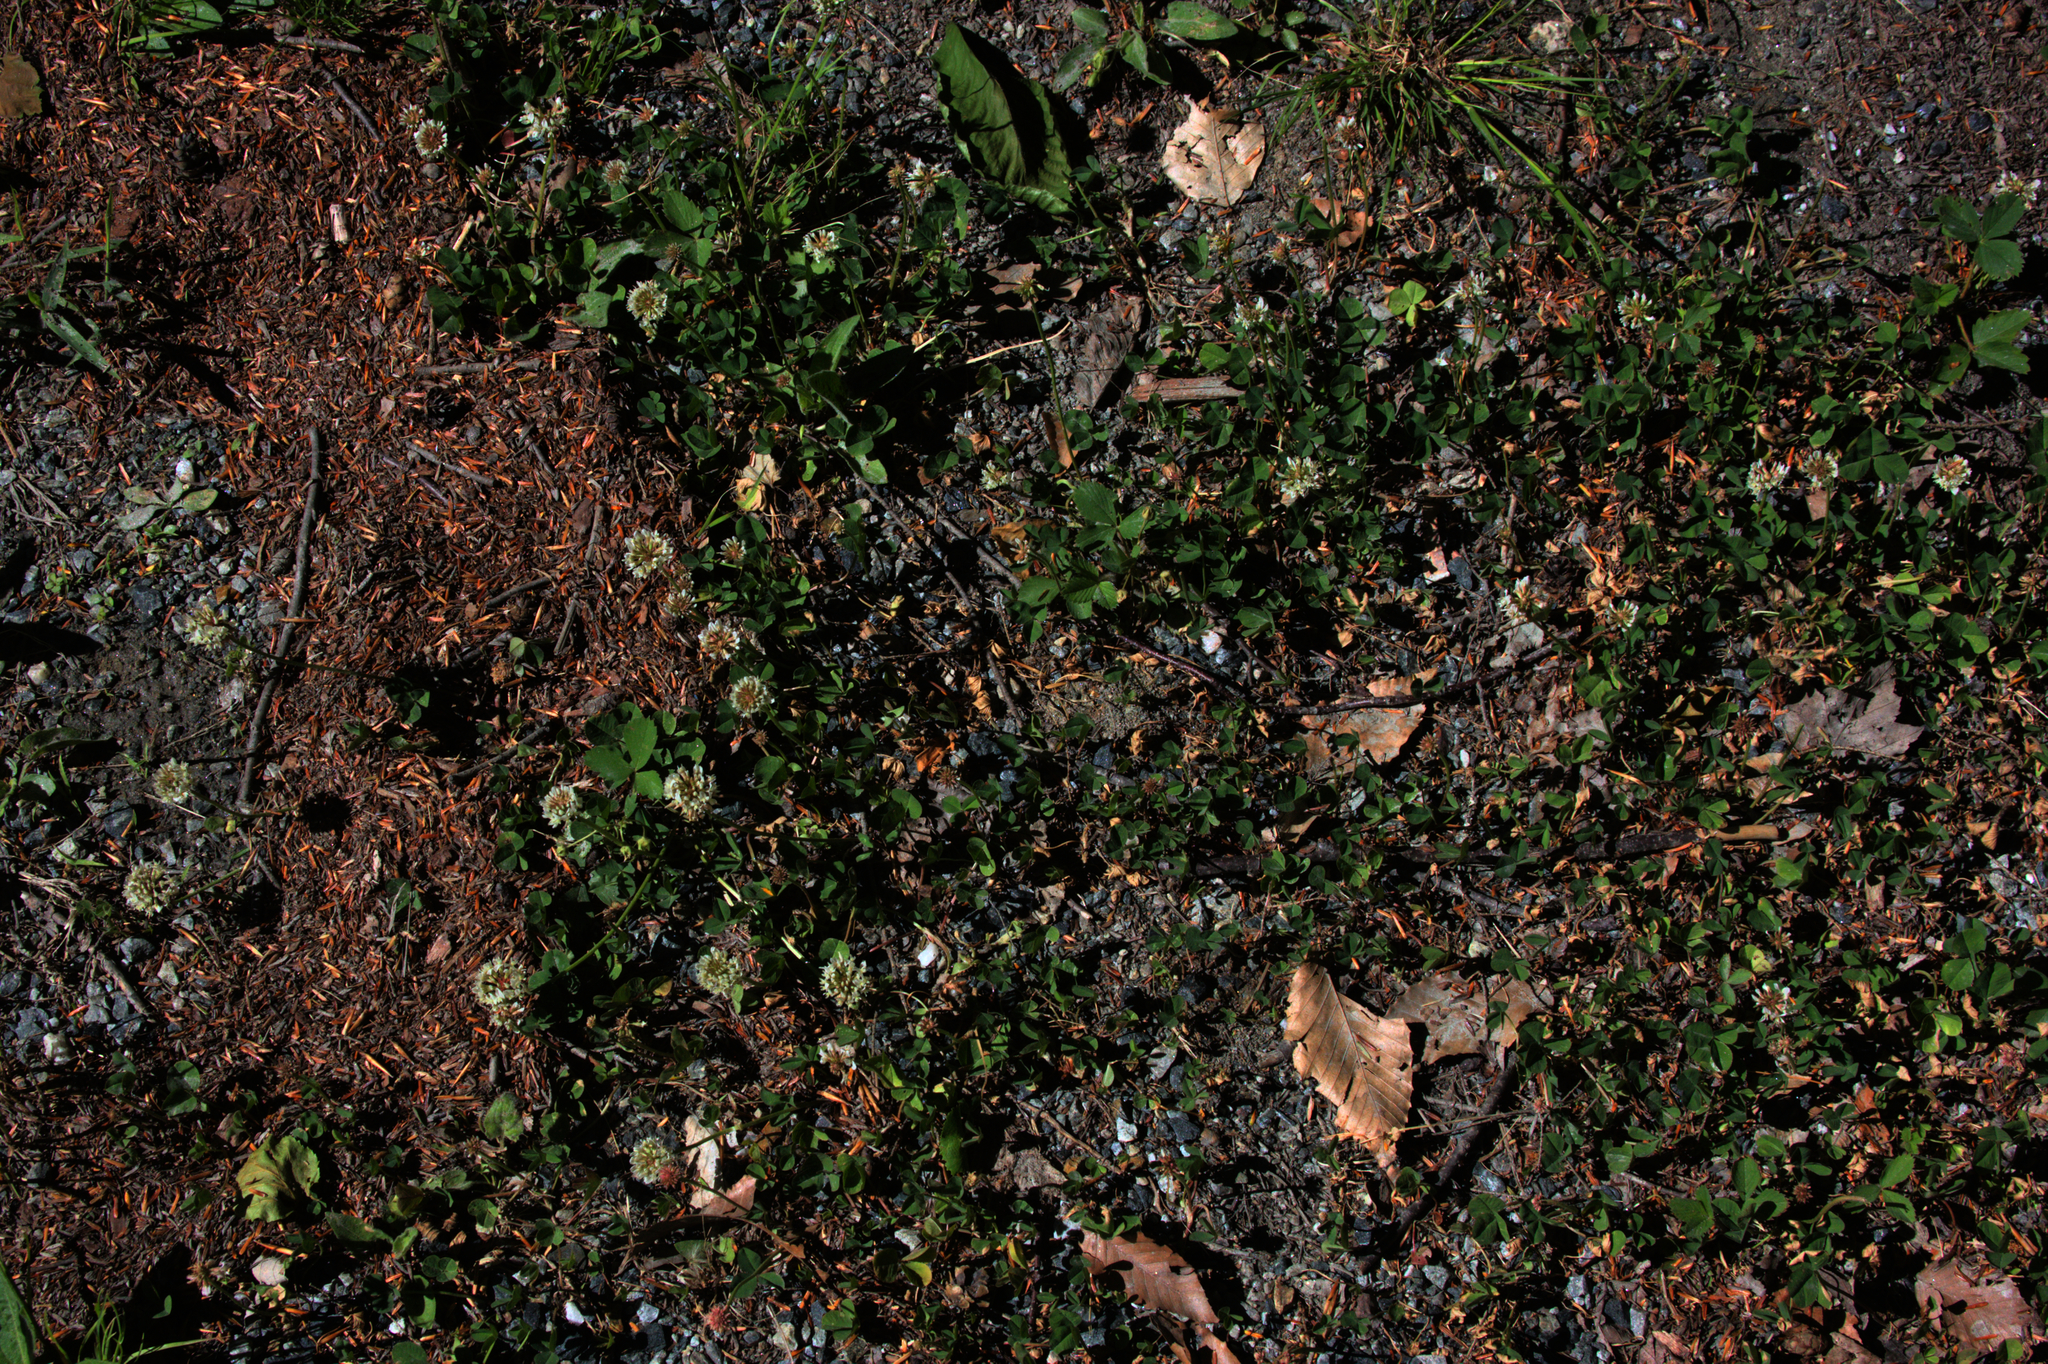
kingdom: Plantae
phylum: Tracheophyta
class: Magnoliopsida
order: Fabales
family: Fabaceae
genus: Trifolium
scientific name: Trifolium repens
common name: White clover
